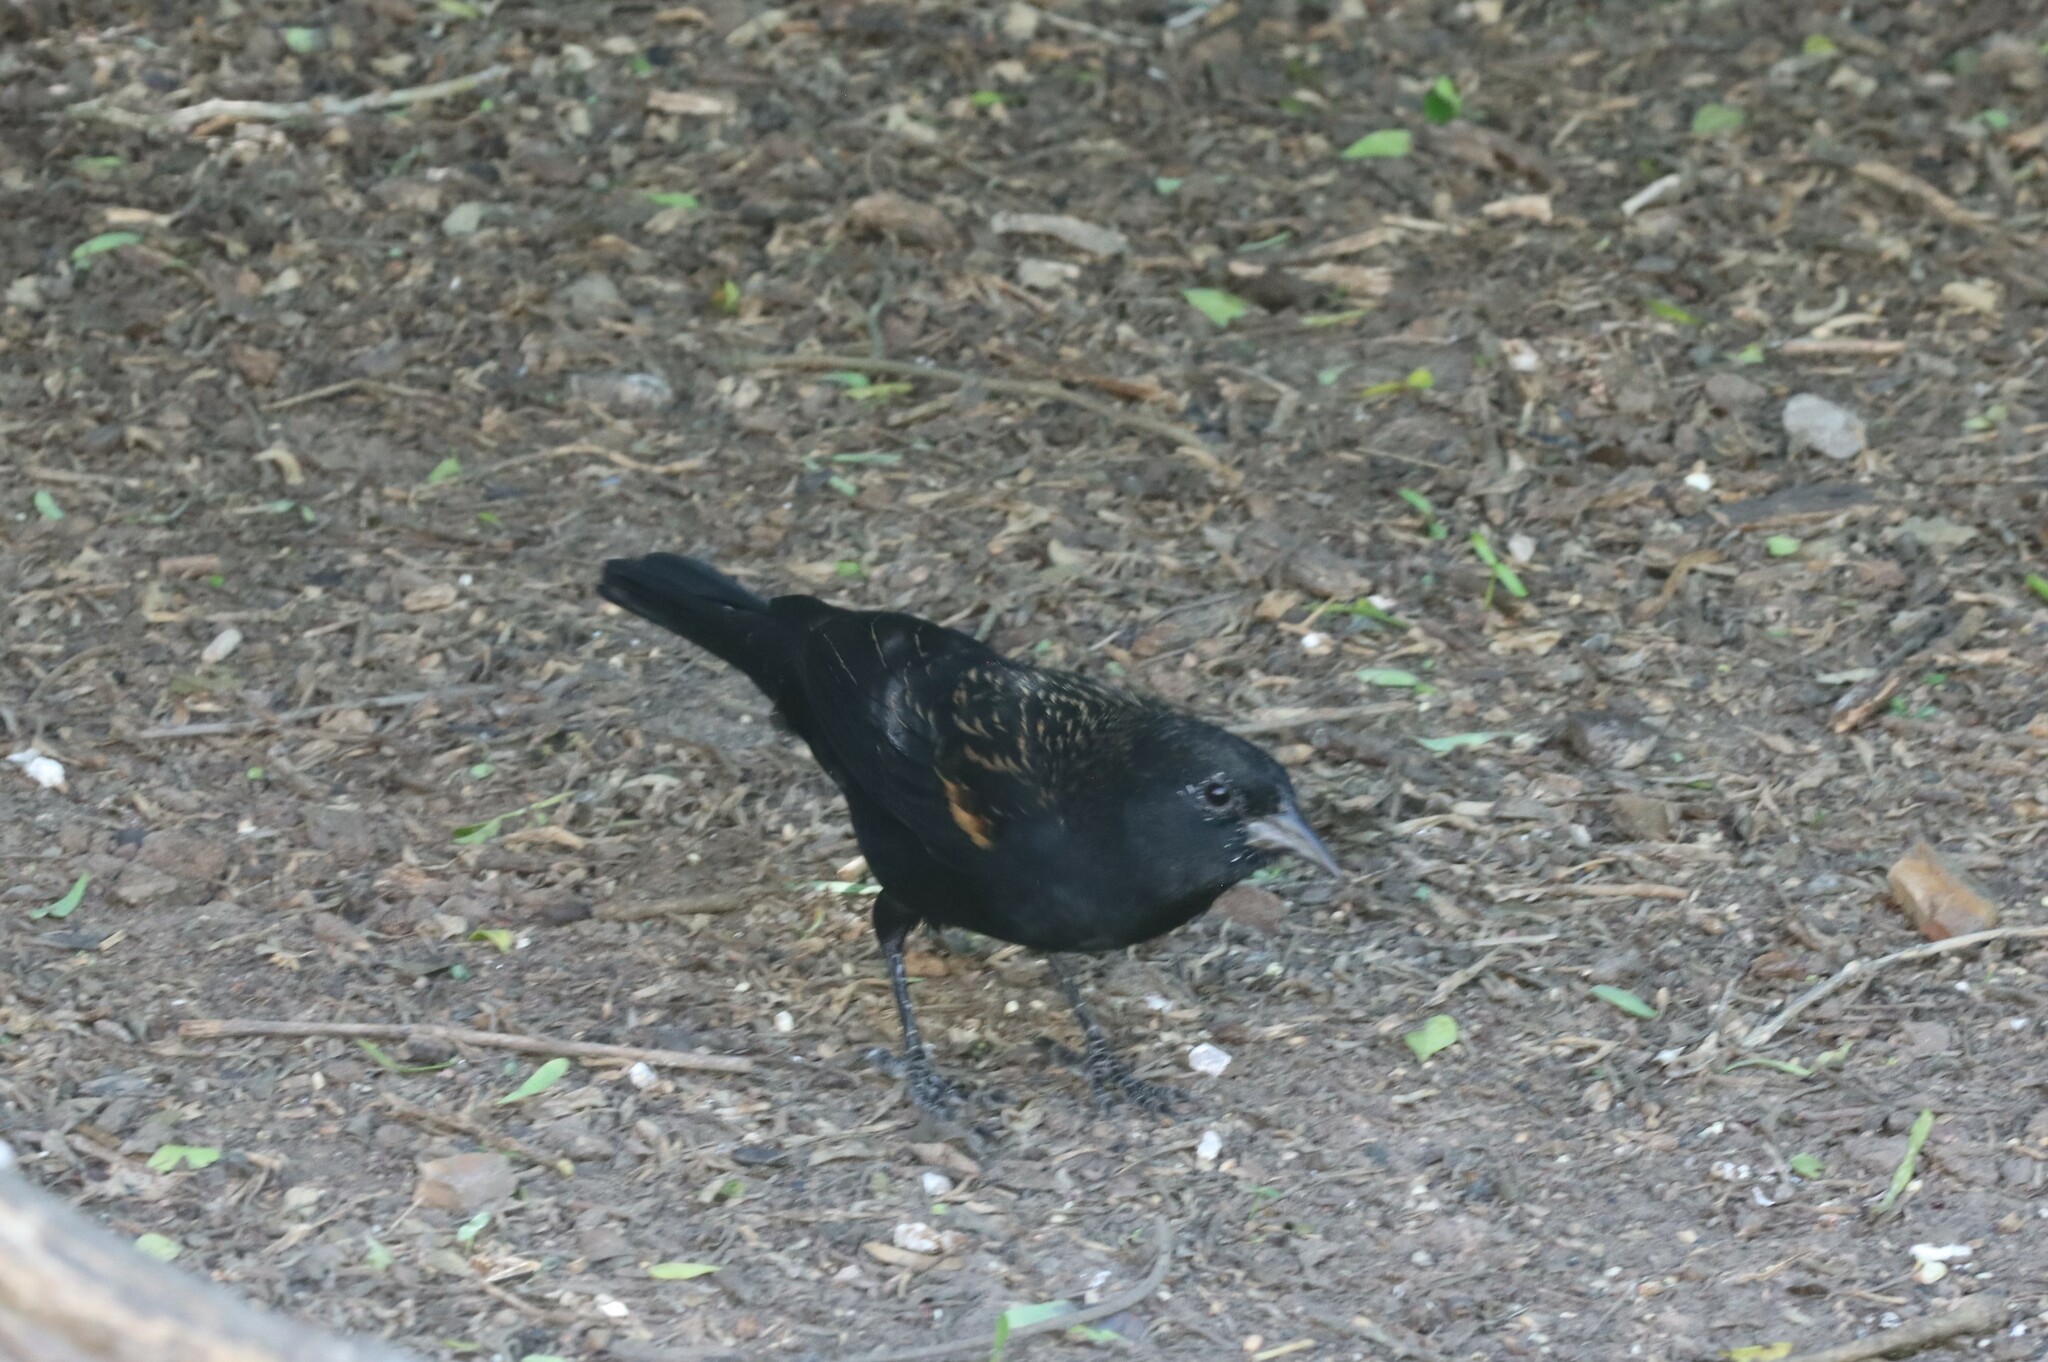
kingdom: Animalia
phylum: Chordata
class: Aves
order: Passeriformes
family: Icteridae
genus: Agelaius
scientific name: Agelaius phoeniceus
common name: Red-winged blackbird
